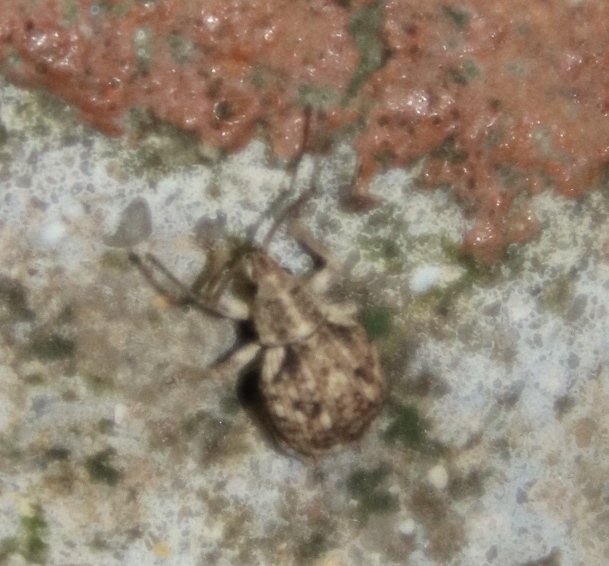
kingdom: Animalia
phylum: Arthropoda
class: Insecta
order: Coleoptera
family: Curculionidae
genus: Ellimenistes
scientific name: Ellimenistes laesicollis
